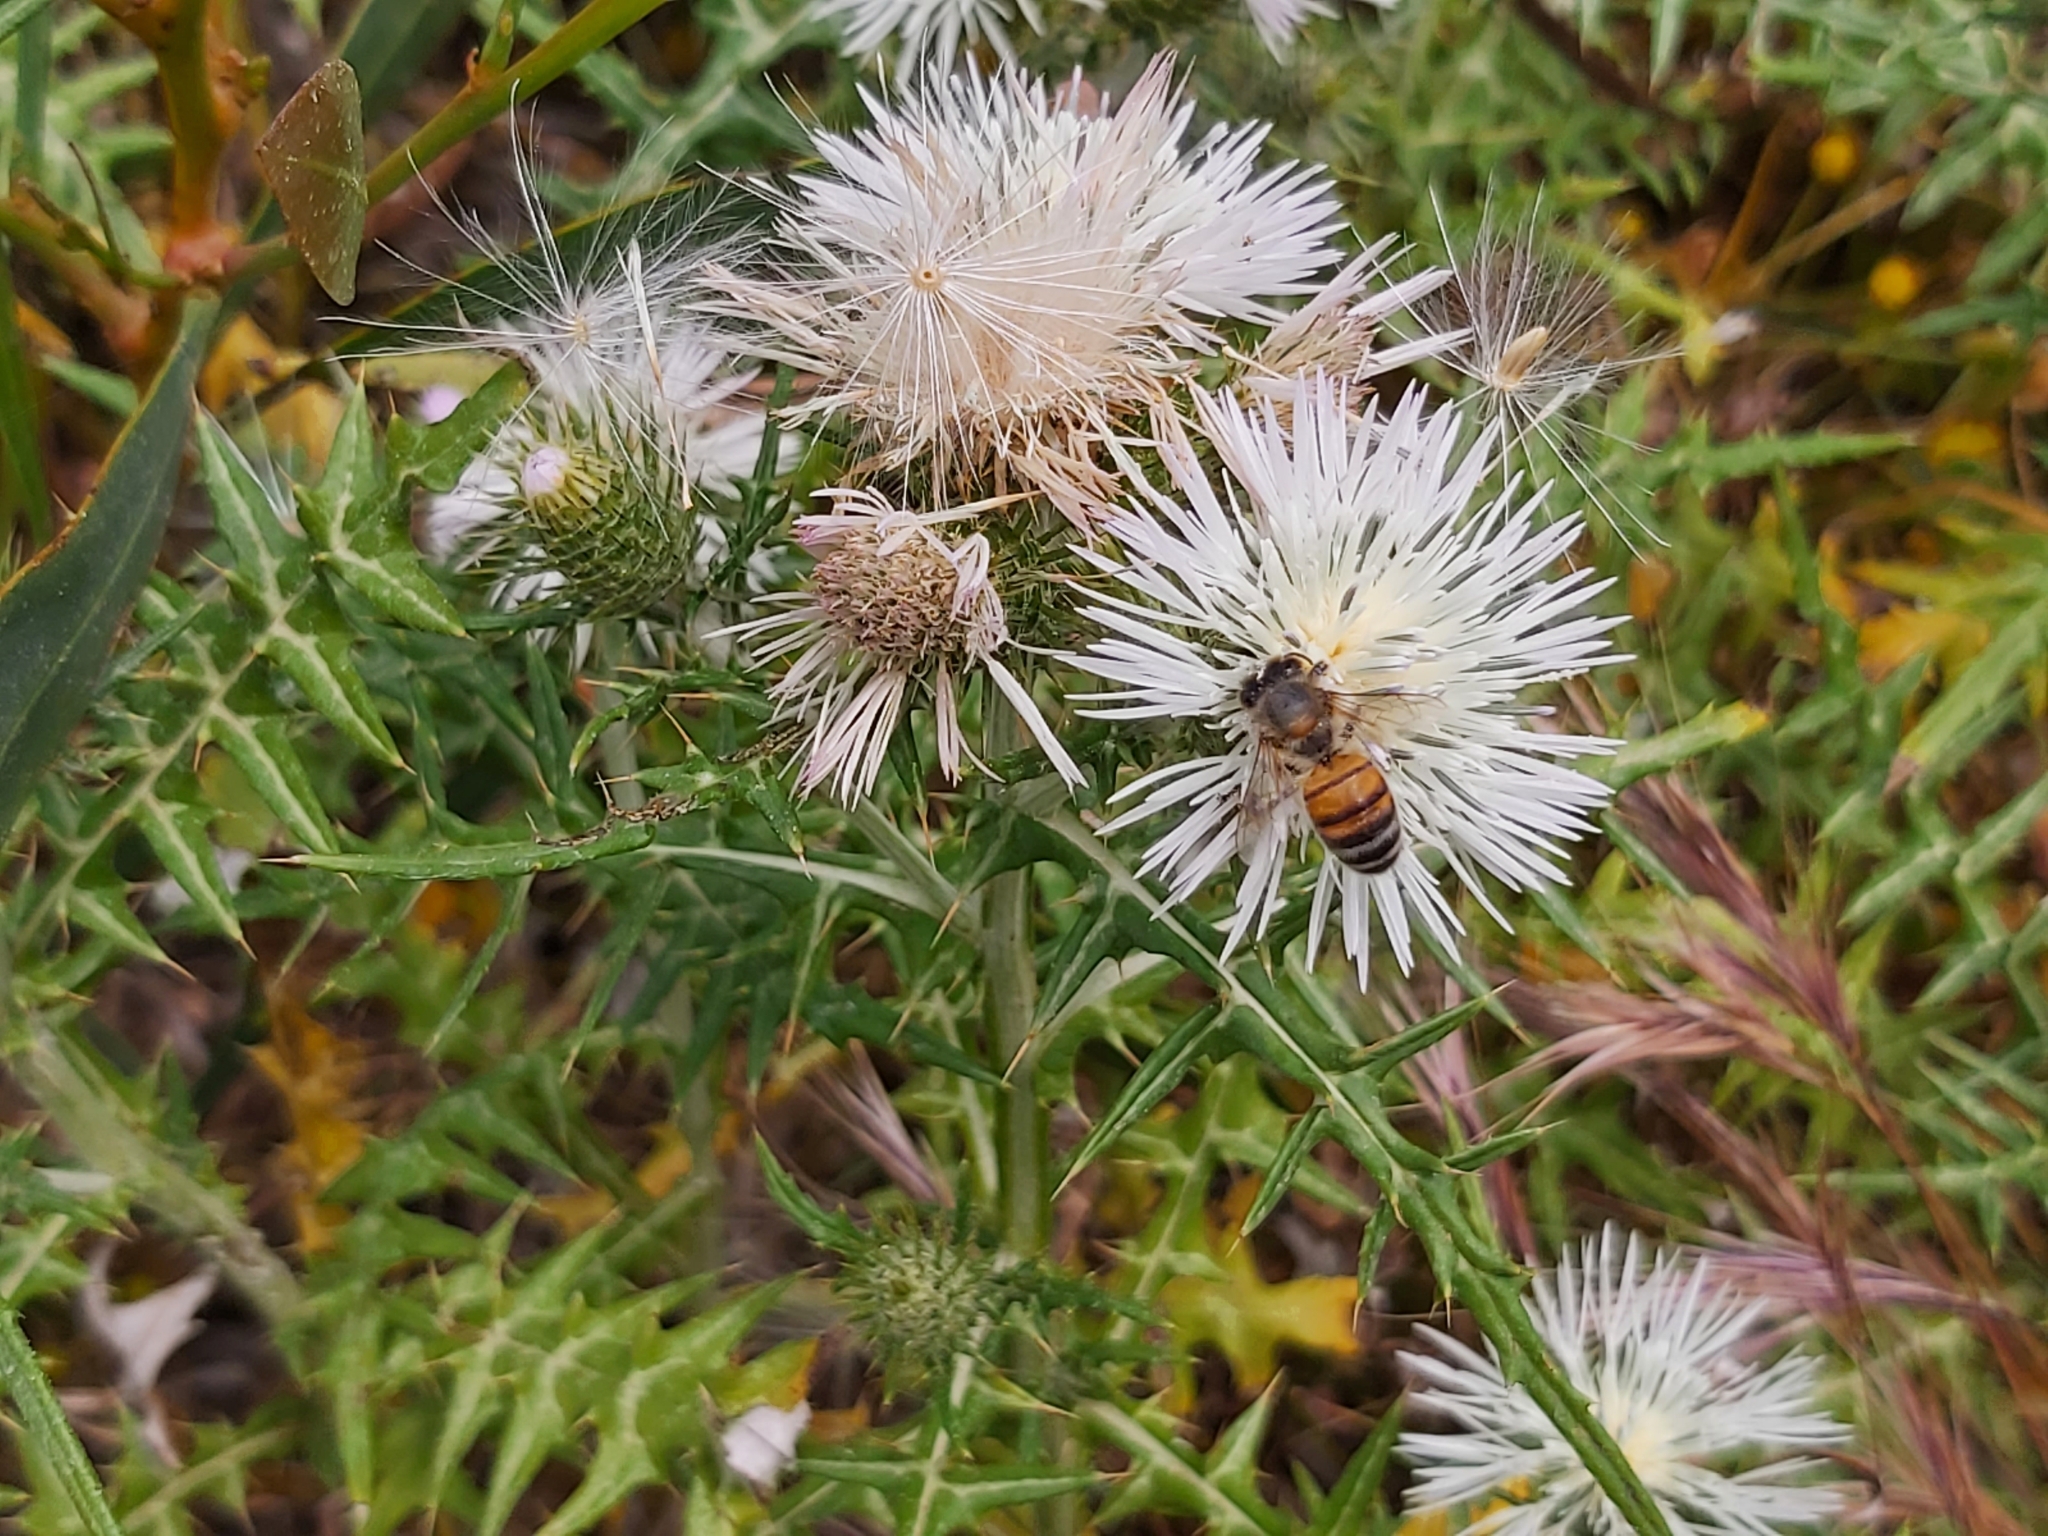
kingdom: Animalia
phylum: Arthropoda
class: Insecta
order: Hymenoptera
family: Apidae
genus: Apis
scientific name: Apis mellifera
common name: Honey bee
